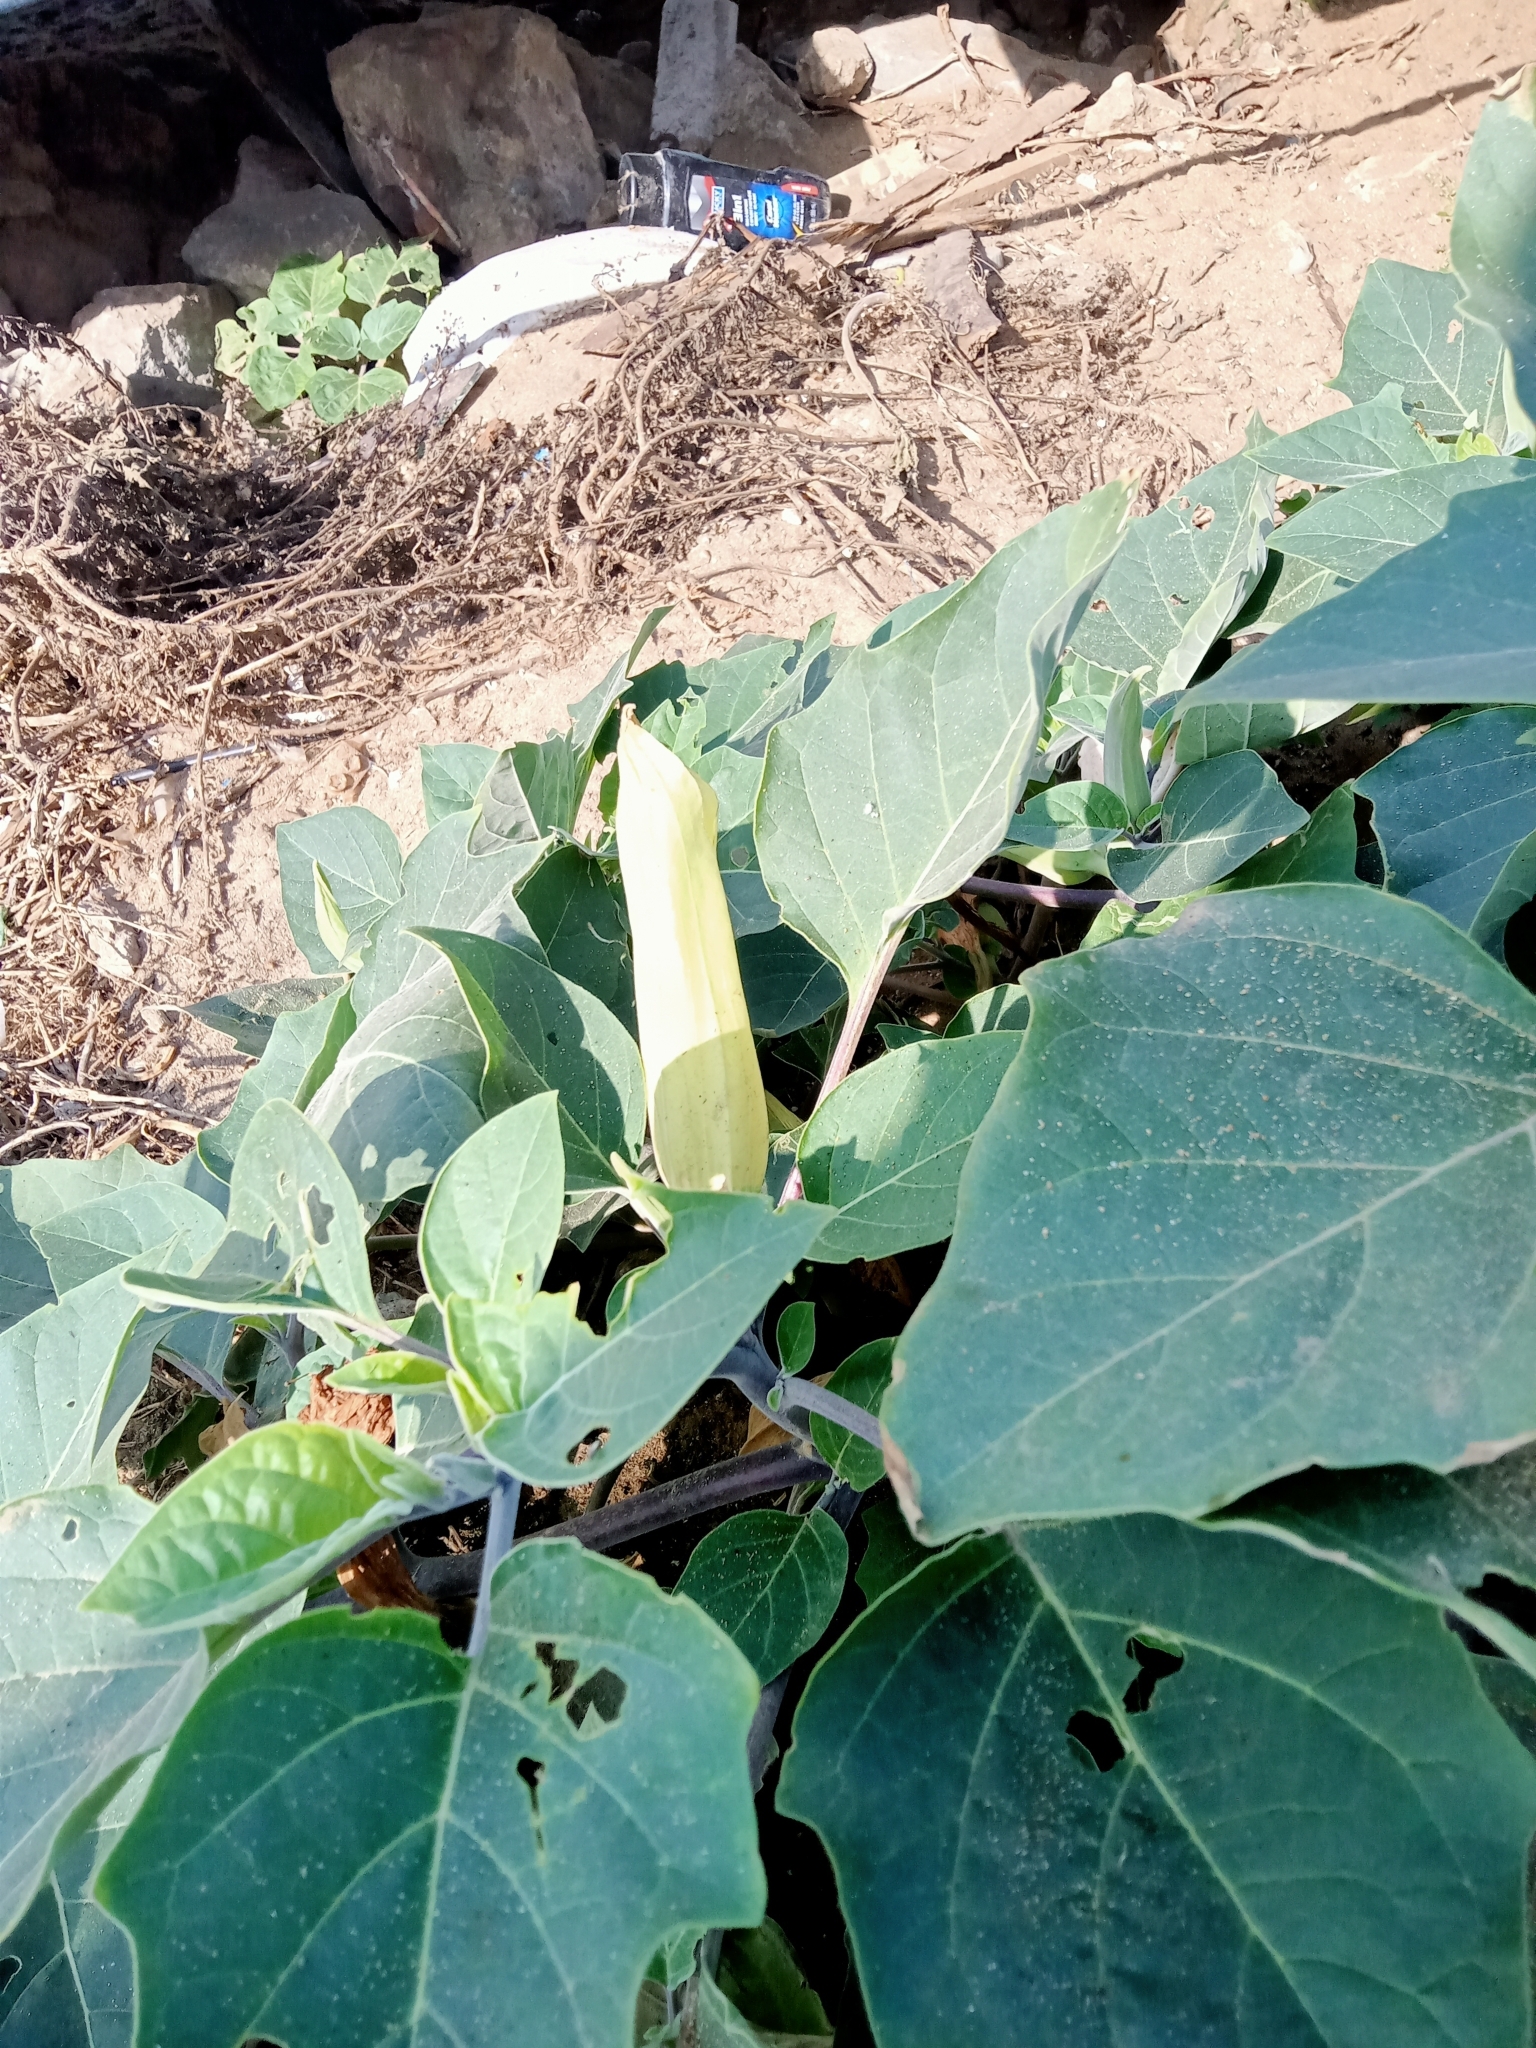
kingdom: Plantae
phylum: Tracheophyta
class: Magnoliopsida
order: Solanales
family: Solanaceae
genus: Datura
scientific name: Datura wrightii
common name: Sacred thorn-apple
